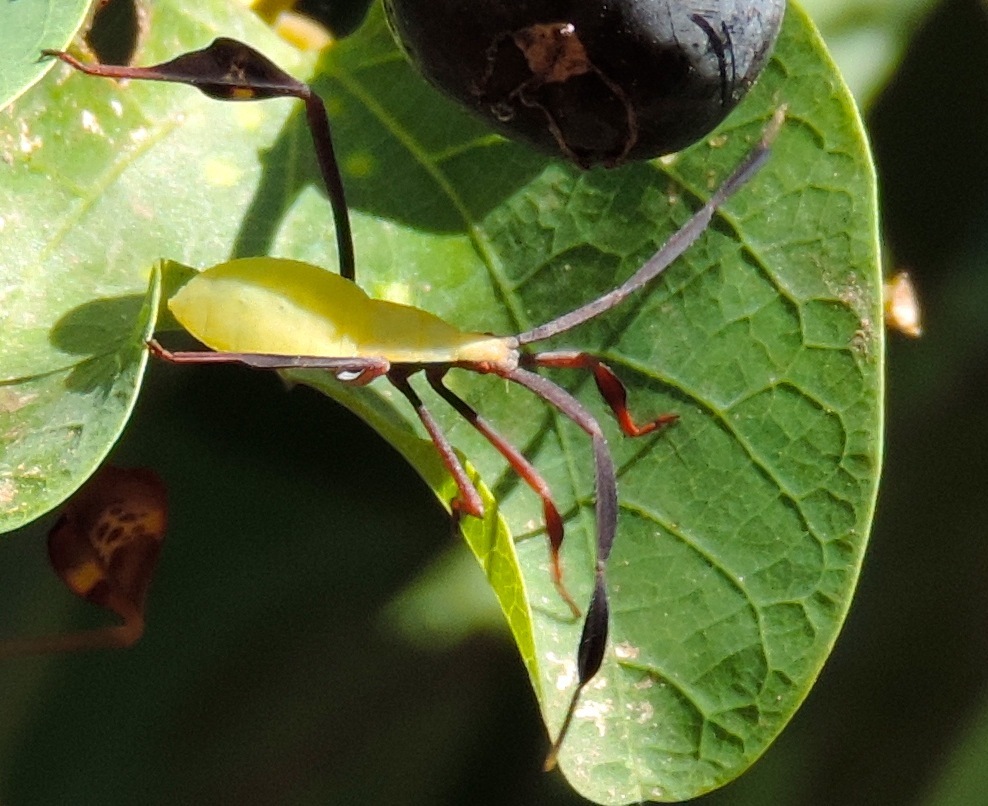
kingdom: Animalia
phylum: Arthropoda
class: Insecta
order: Hemiptera
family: Coreidae
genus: Bitta
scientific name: Bitta
